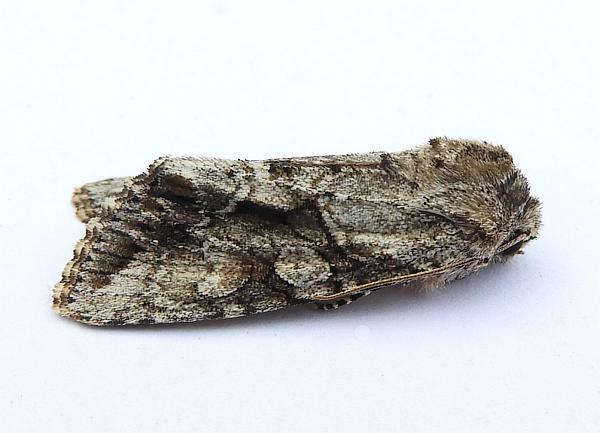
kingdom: Animalia
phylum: Arthropoda
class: Insecta
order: Lepidoptera
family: Noctuidae
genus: Achatia
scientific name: Achatia distincta
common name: Distinct quaker
